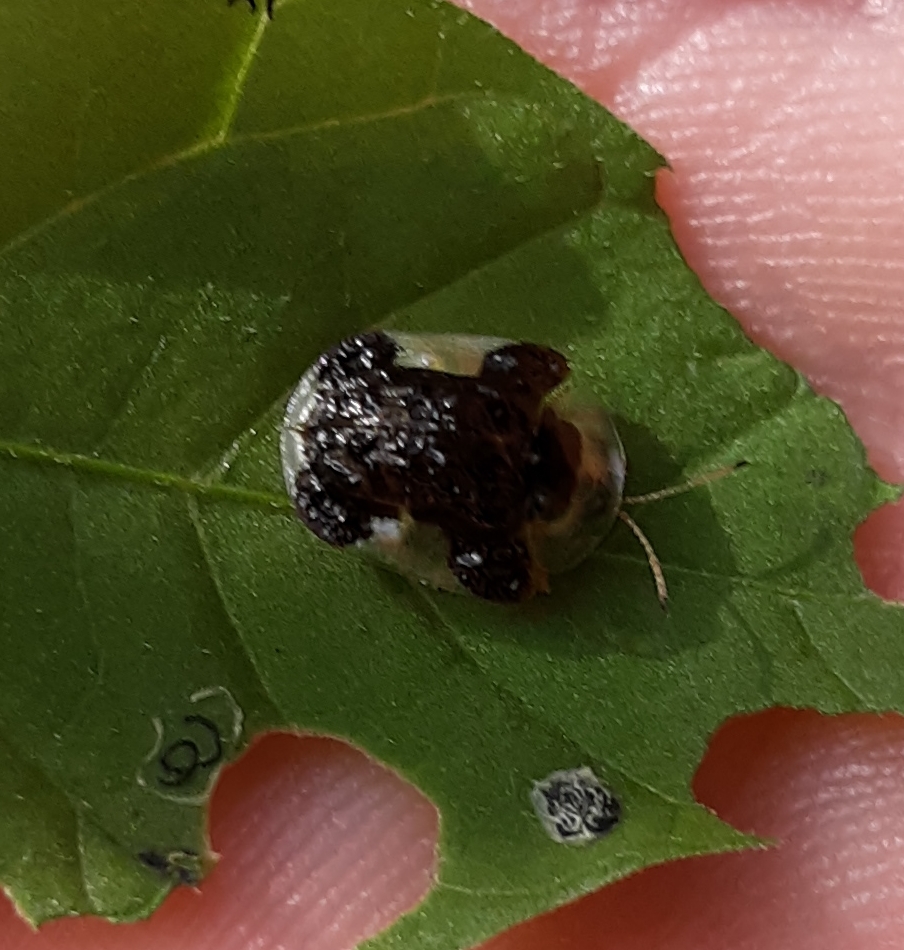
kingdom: Animalia
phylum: Arthropoda
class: Insecta
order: Coleoptera
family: Chrysomelidae
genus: Helocassis
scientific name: Helocassis clavata
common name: Clavate tortoise beetle
